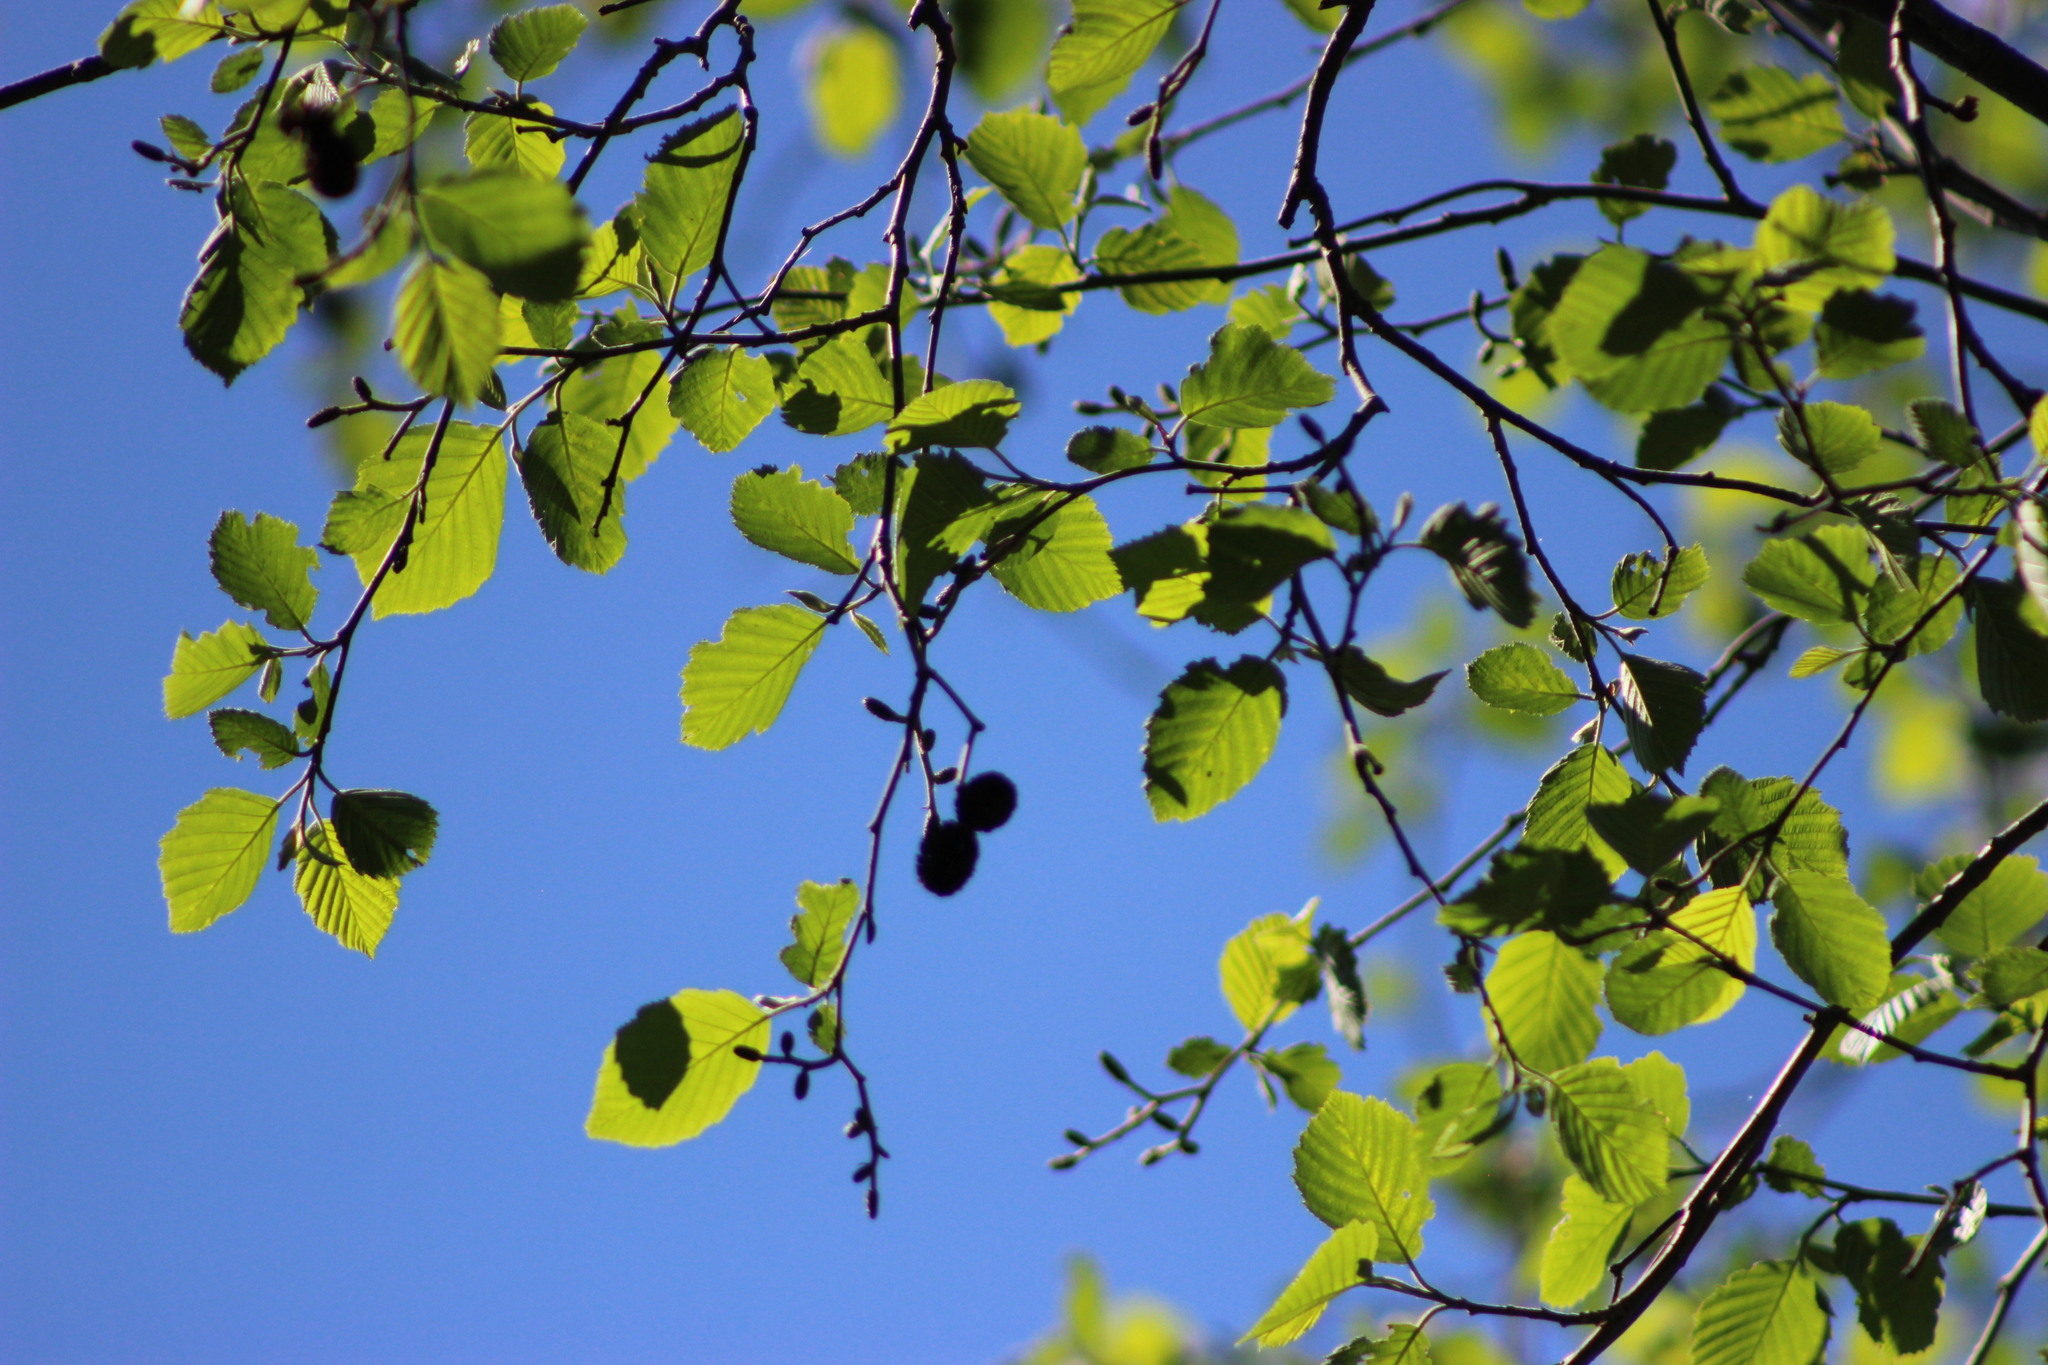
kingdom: Plantae
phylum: Tracheophyta
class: Magnoliopsida
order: Fagales
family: Betulaceae
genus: Alnus
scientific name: Alnus incana
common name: Grey alder
